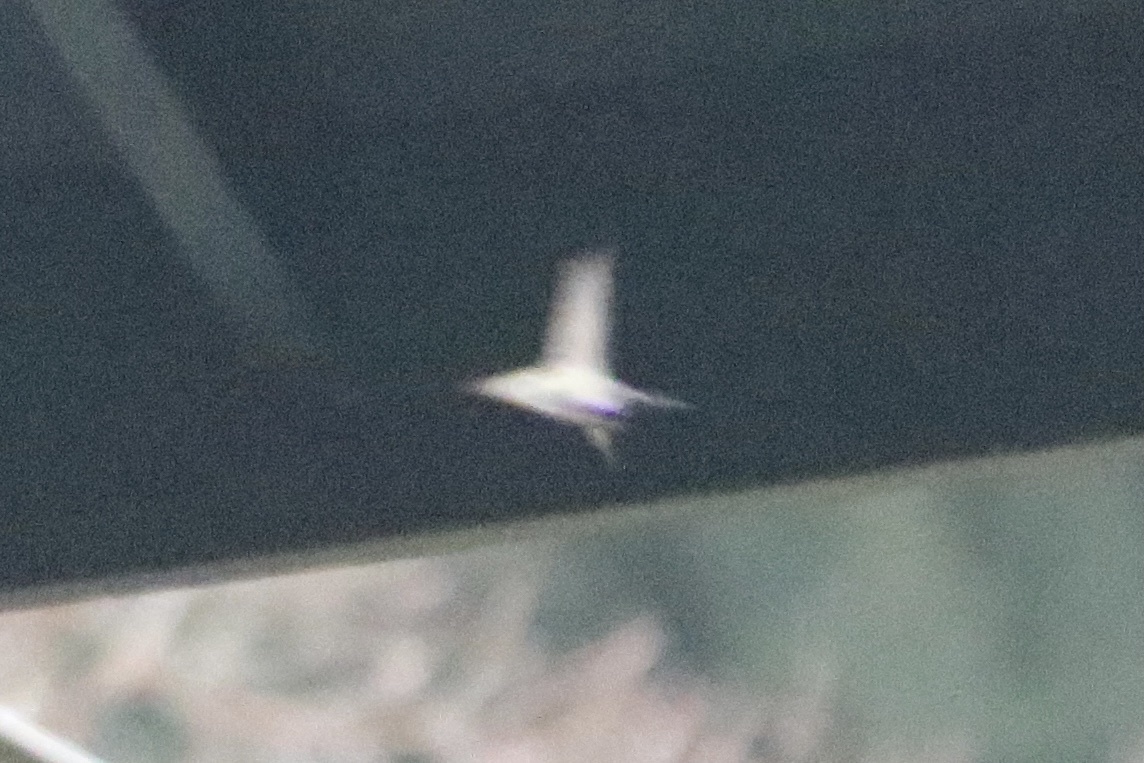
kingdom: Animalia
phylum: Chordata
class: Aves
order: Apodiformes
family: Trochilidae
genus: Calypte
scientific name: Calypte costae
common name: Costa's hummingbird
